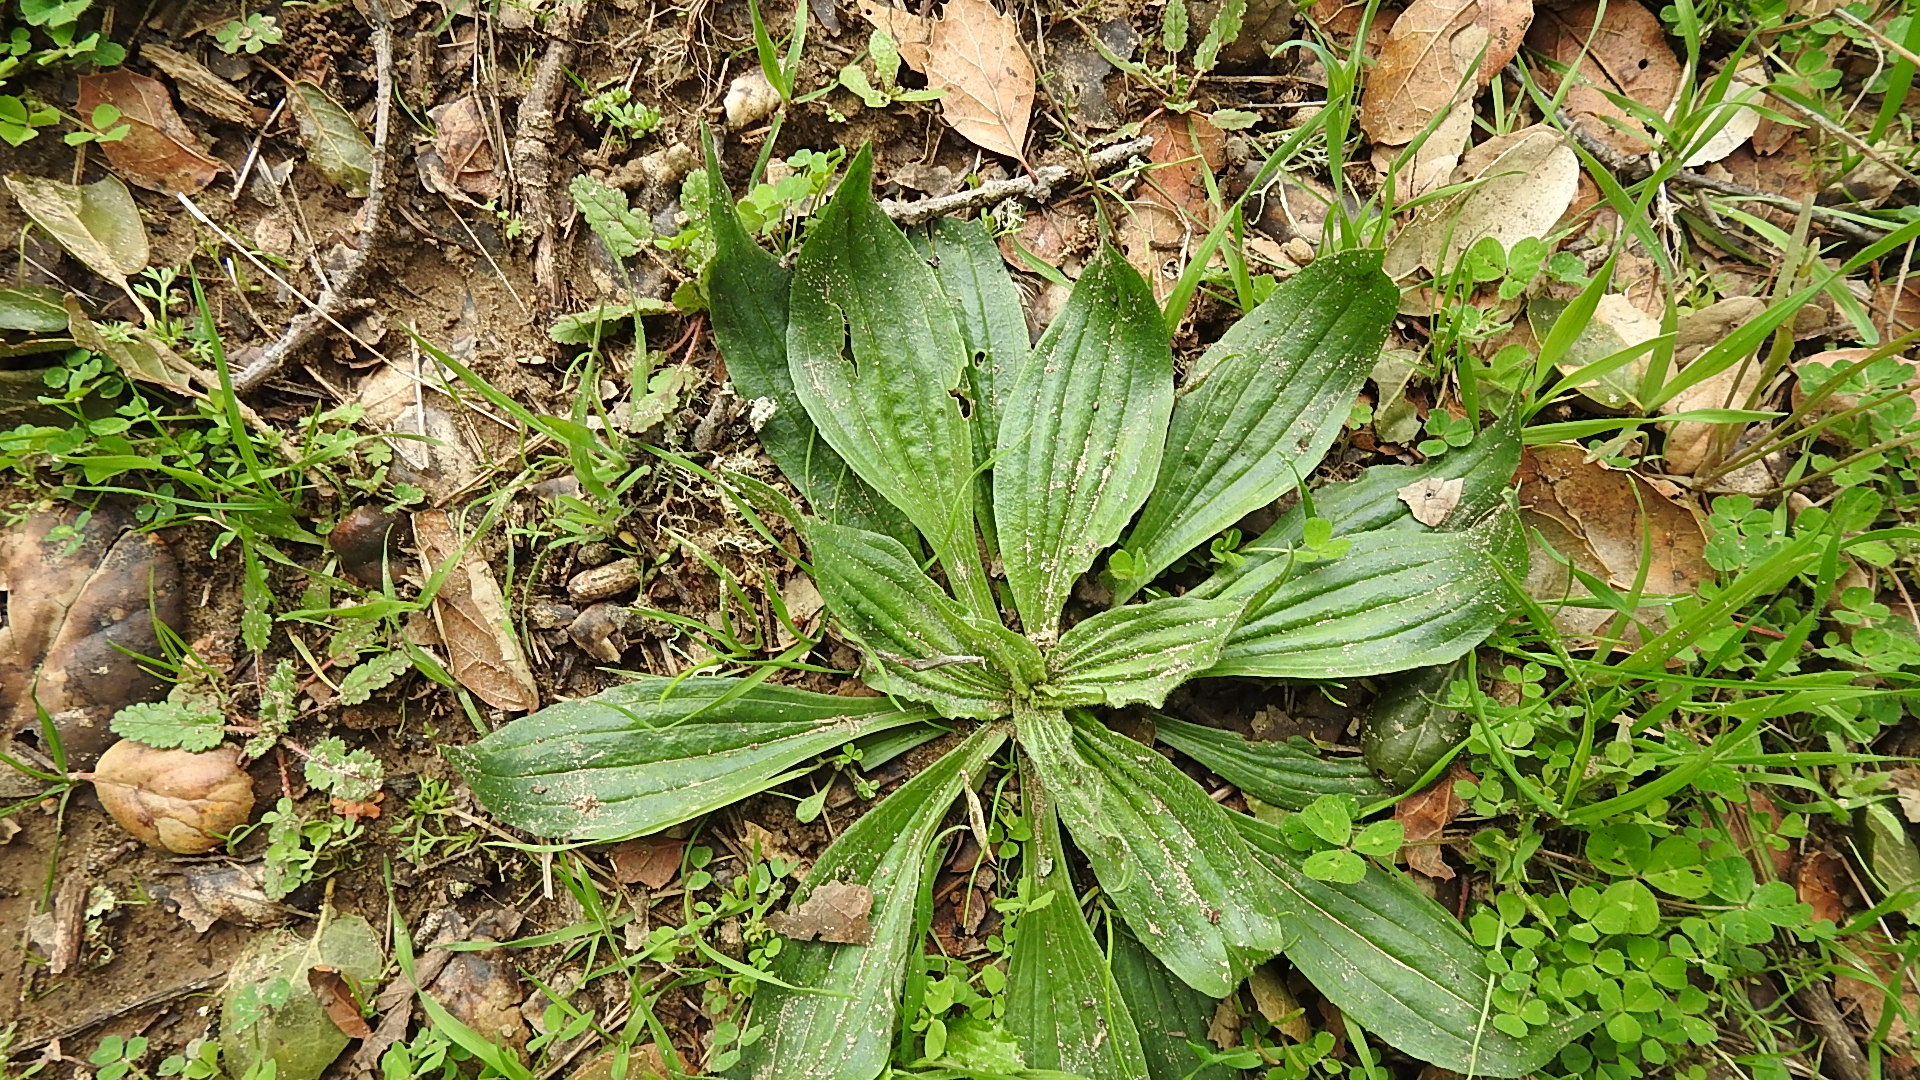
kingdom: Plantae
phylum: Tracheophyta
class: Magnoliopsida
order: Lamiales
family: Plantaginaceae
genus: Plantago
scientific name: Plantago lanceolata
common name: Ribwort plantain
